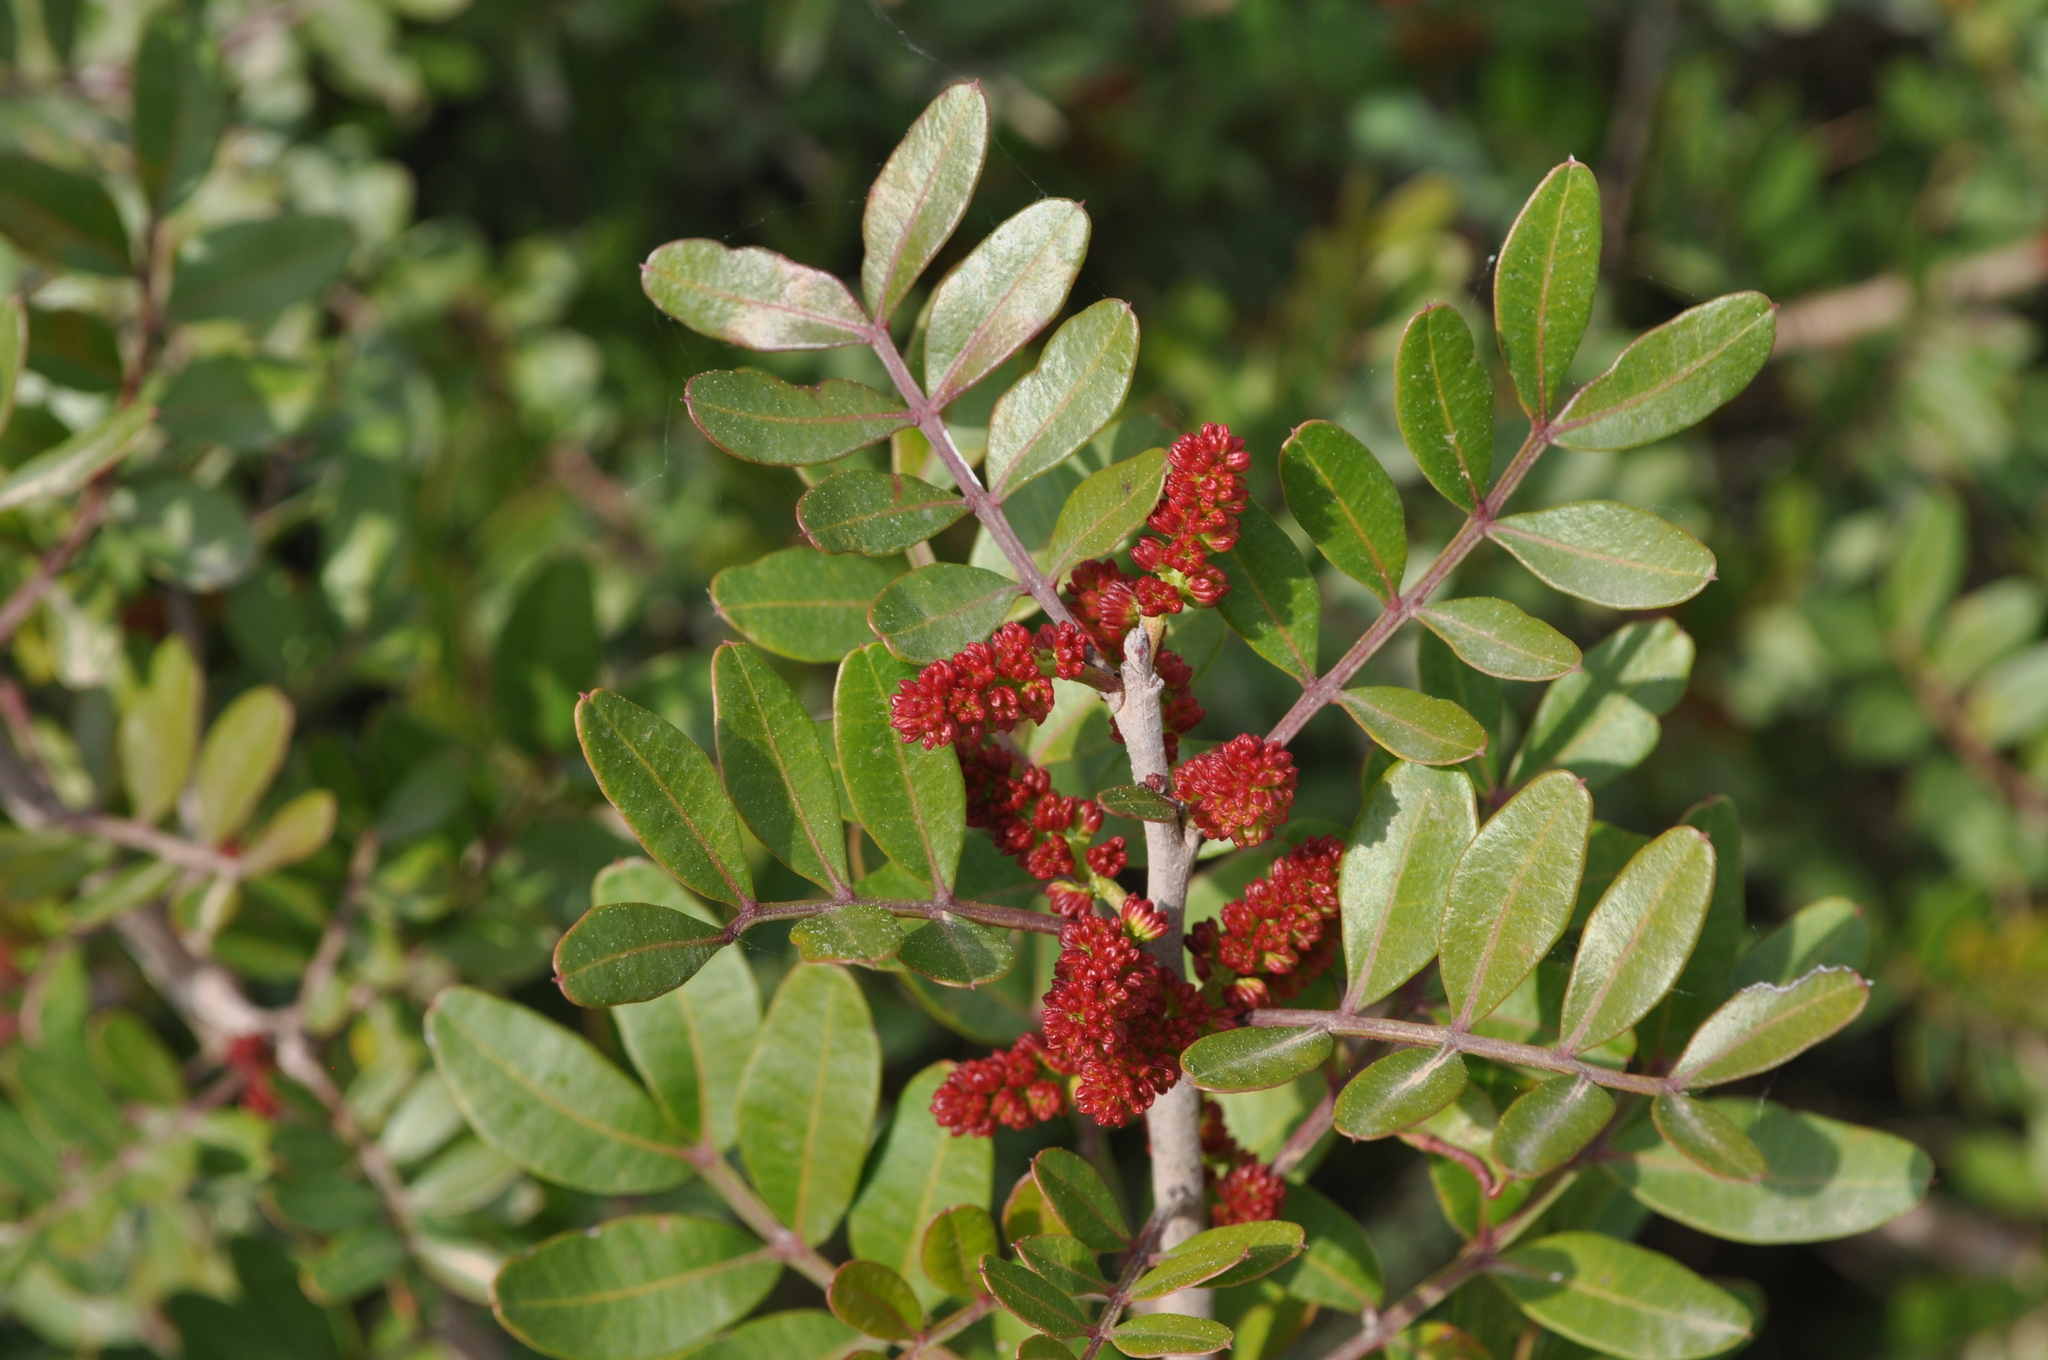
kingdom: Plantae
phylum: Tracheophyta
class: Magnoliopsida
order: Sapindales
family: Anacardiaceae
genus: Pistacia
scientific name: Pistacia lentiscus
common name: Lentisk
